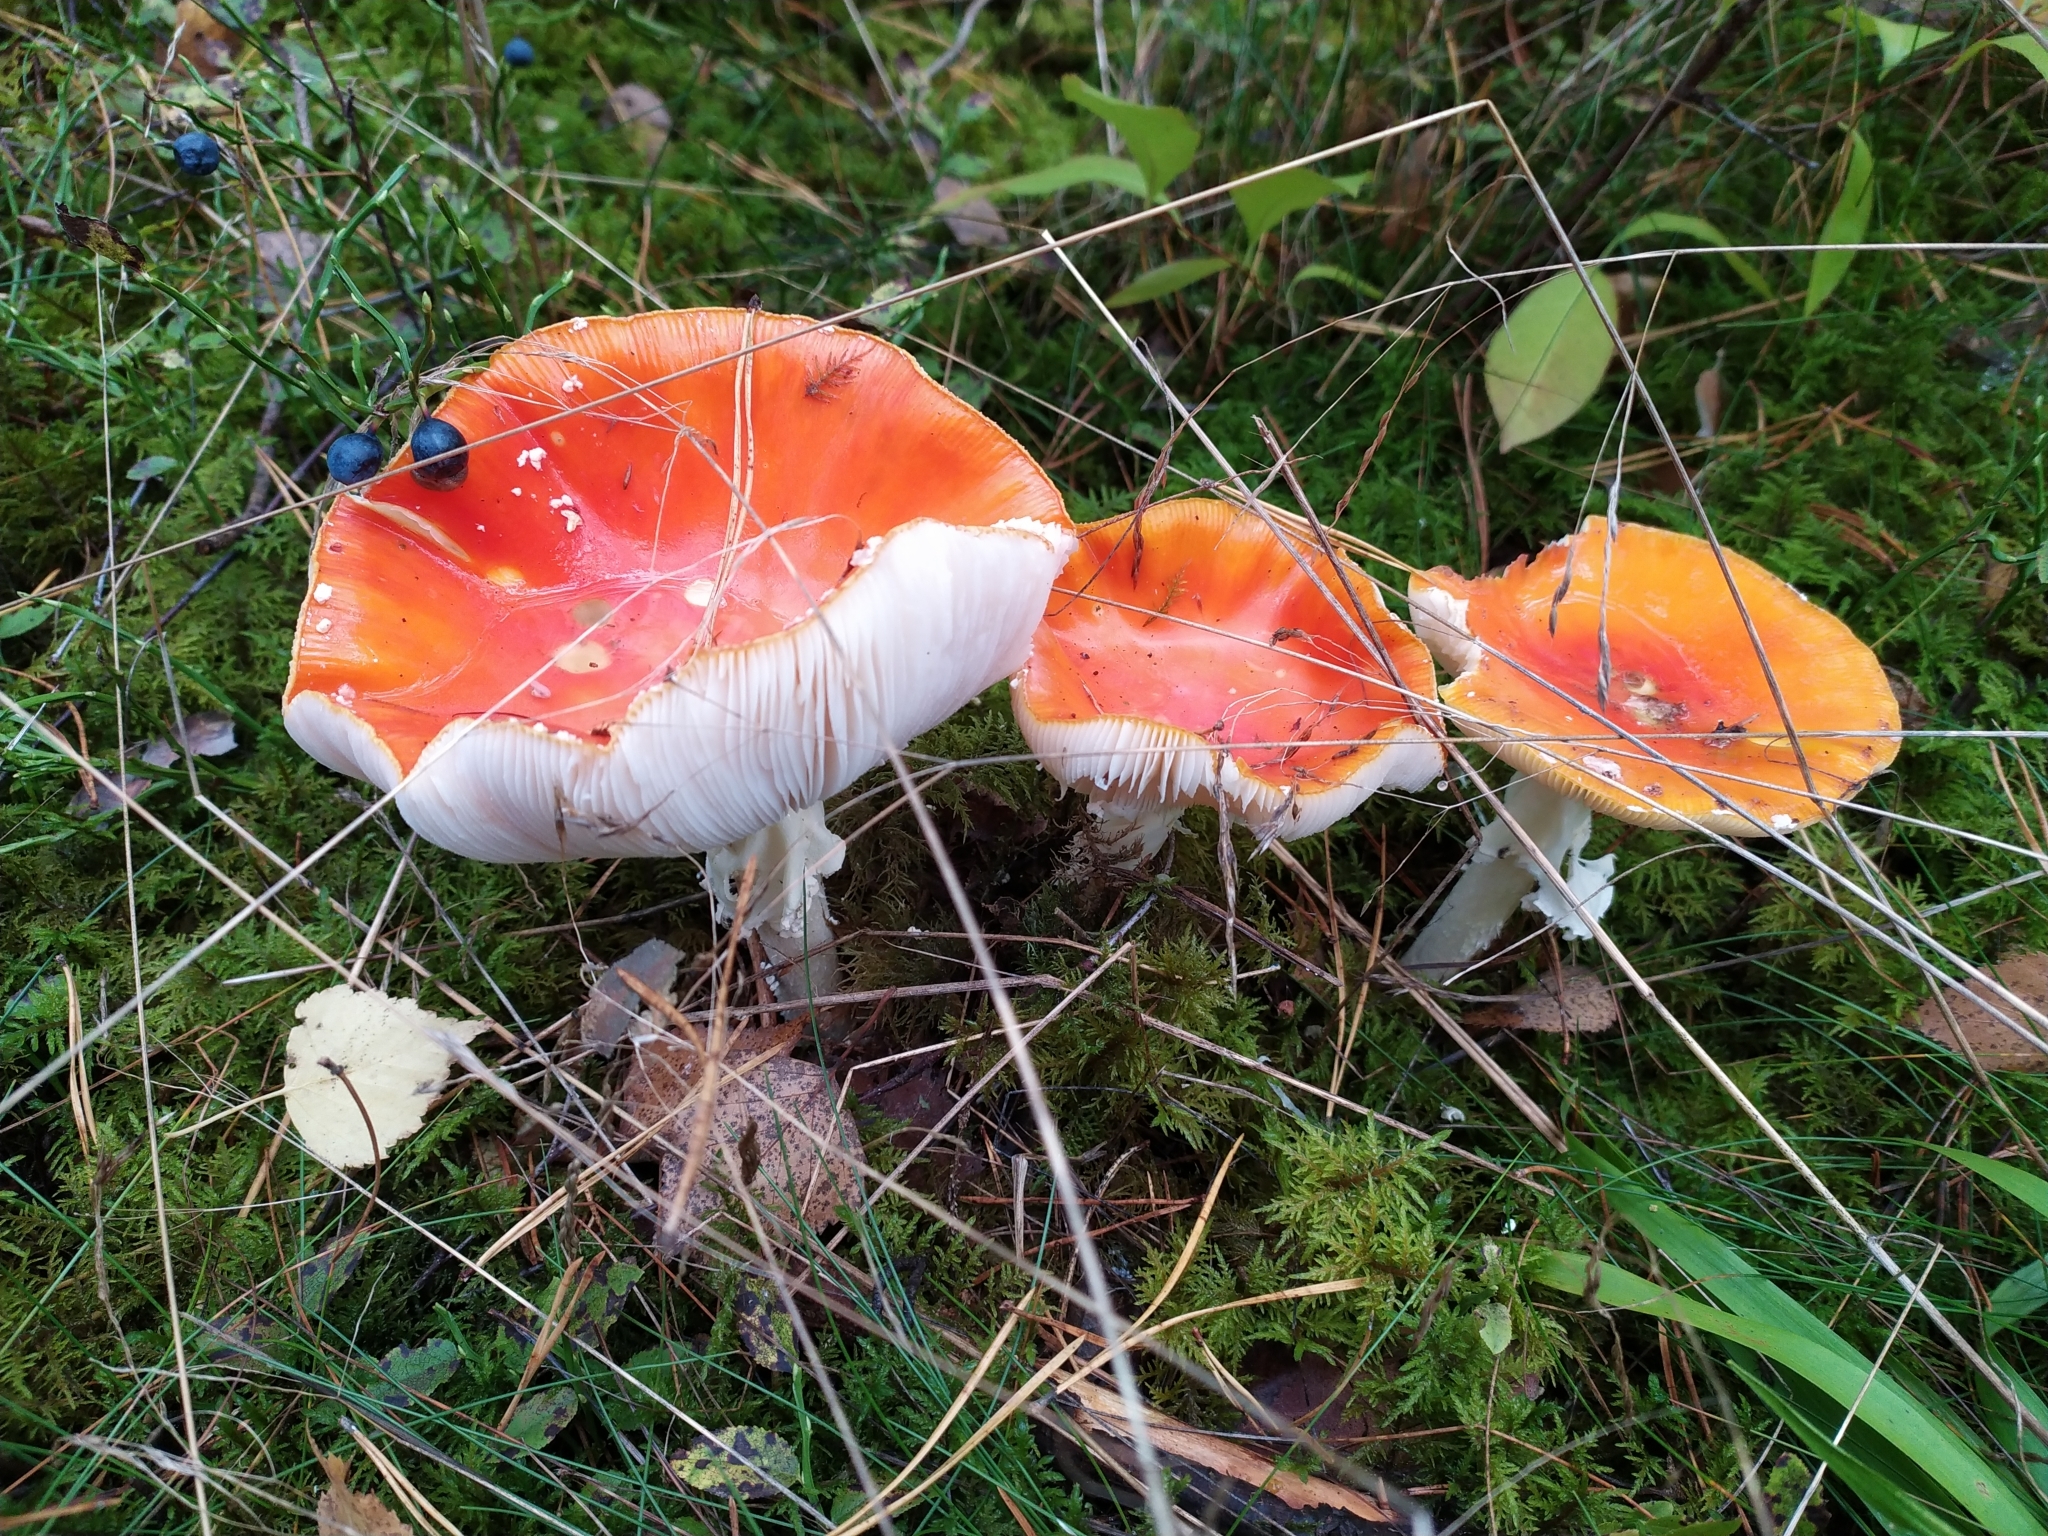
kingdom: Fungi
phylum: Basidiomycota
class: Agaricomycetes
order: Agaricales
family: Amanitaceae
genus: Amanita
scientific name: Amanita muscaria
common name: Fly agaric
